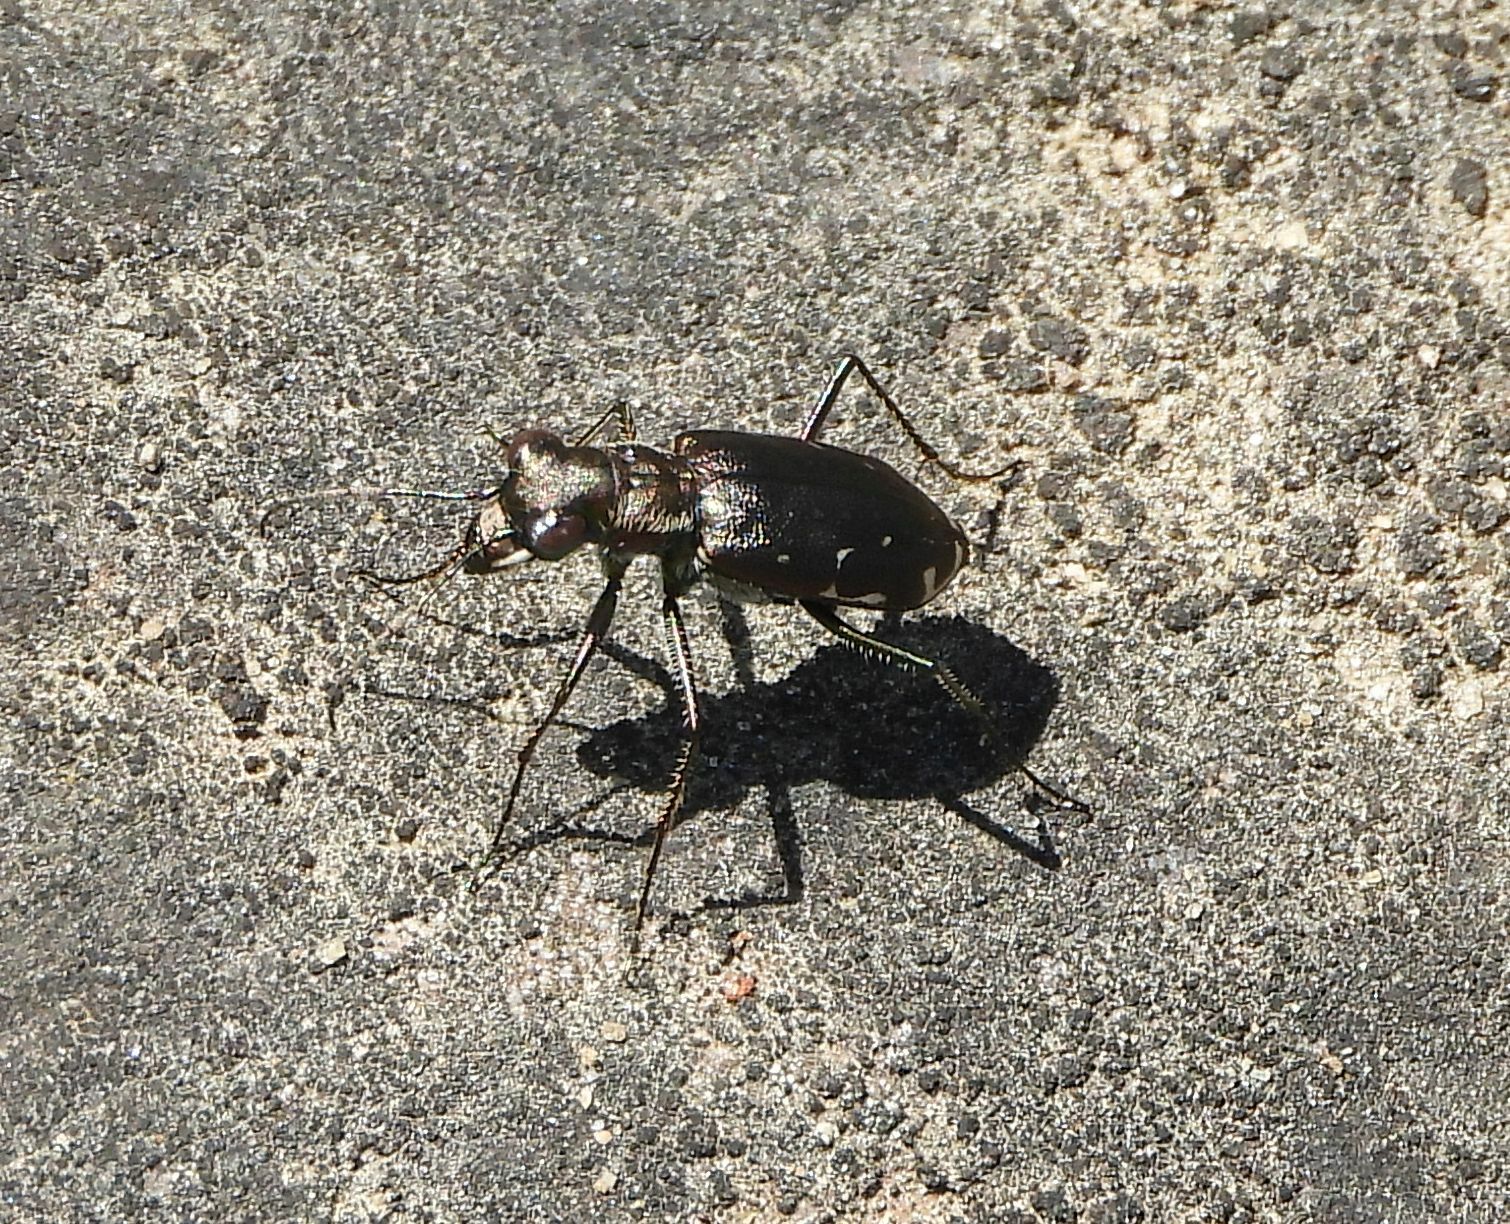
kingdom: Animalia
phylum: Arthropoda
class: Insecta
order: Coleoptera
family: Carabidae
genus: Cicindela
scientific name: Cicindela punctulata
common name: Punctured tiger beetle
